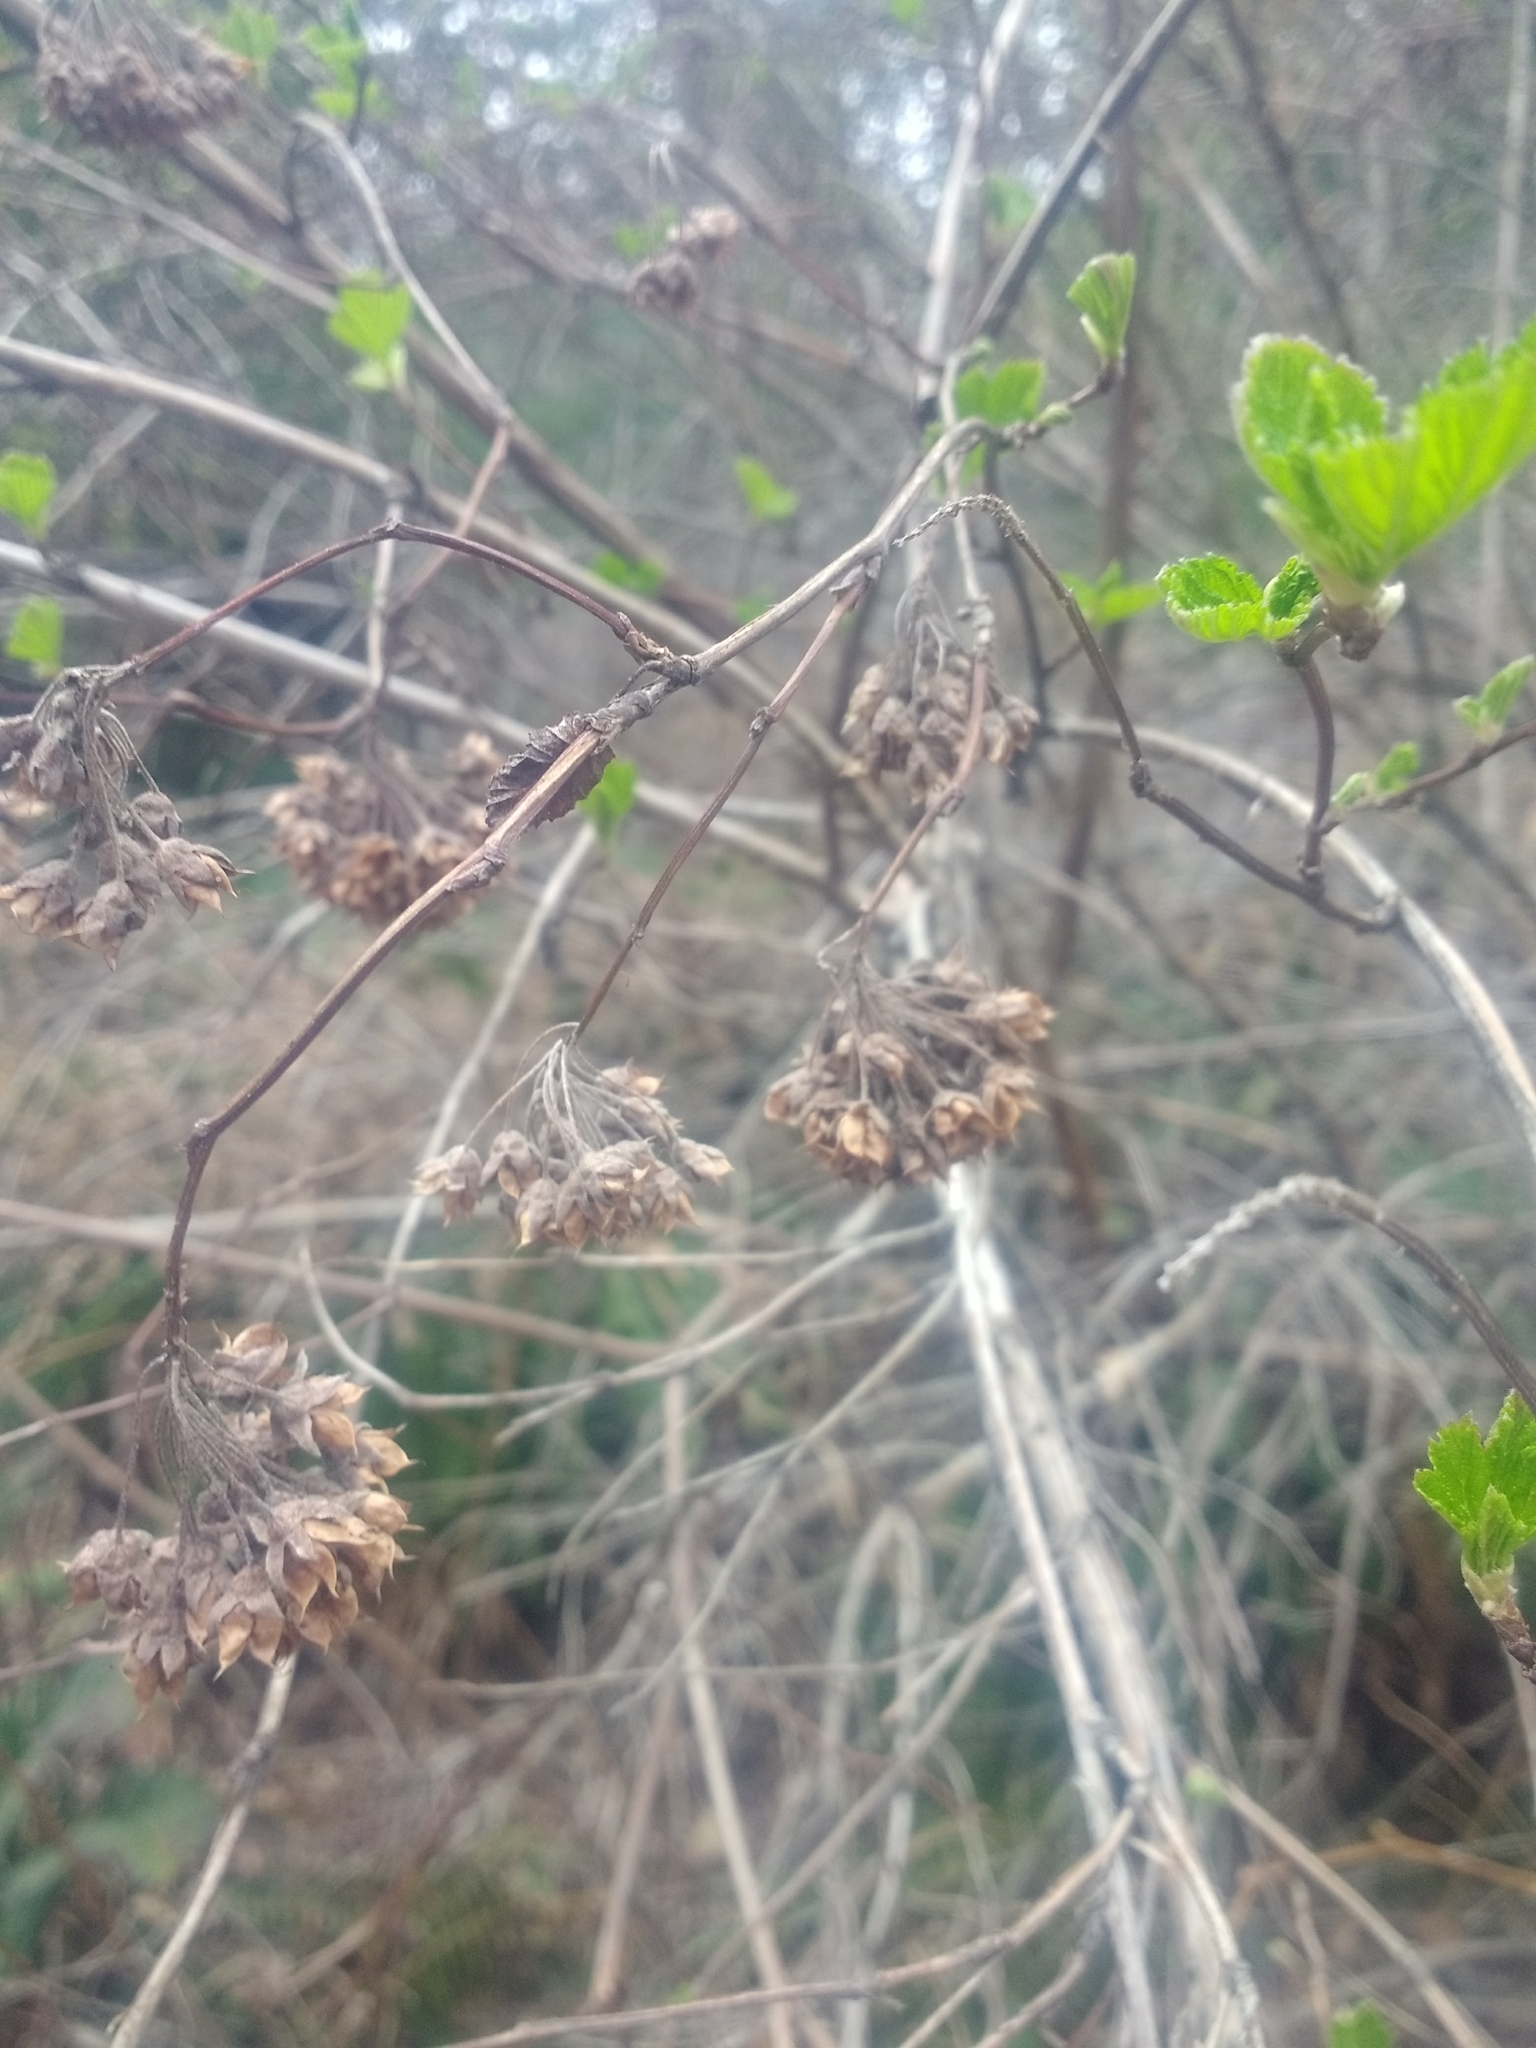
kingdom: Plantae
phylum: Tracheophyta
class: Magnoliopsida
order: Rosales
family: Rosaceae
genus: Physocarpus
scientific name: Physocarpus capitatus
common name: Pacific ninebark
